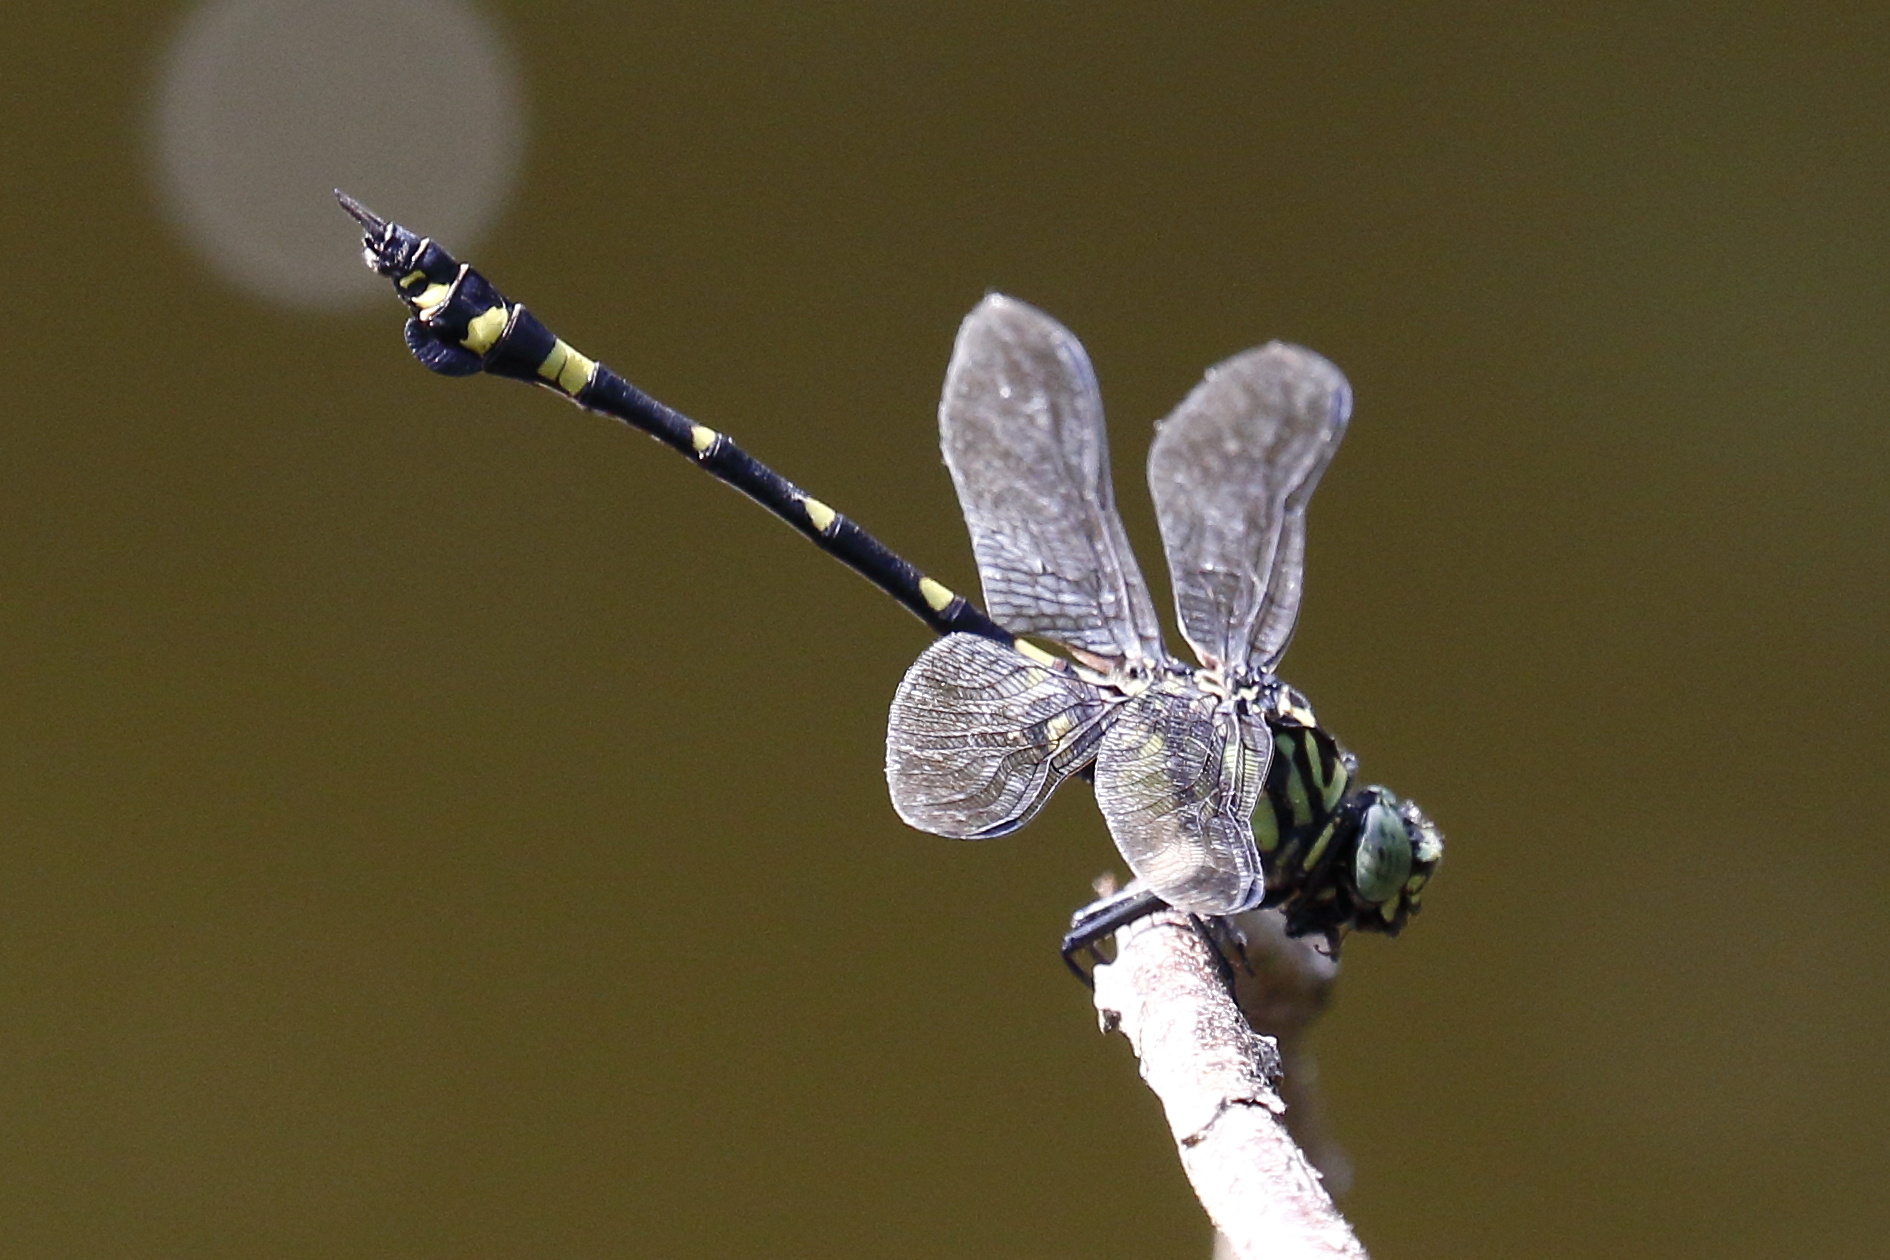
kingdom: Animalia
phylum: Arthropoda
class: Insecta
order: Odonata
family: Gomphidae
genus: Ictinogomphus
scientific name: Ictinogomphus rapax
